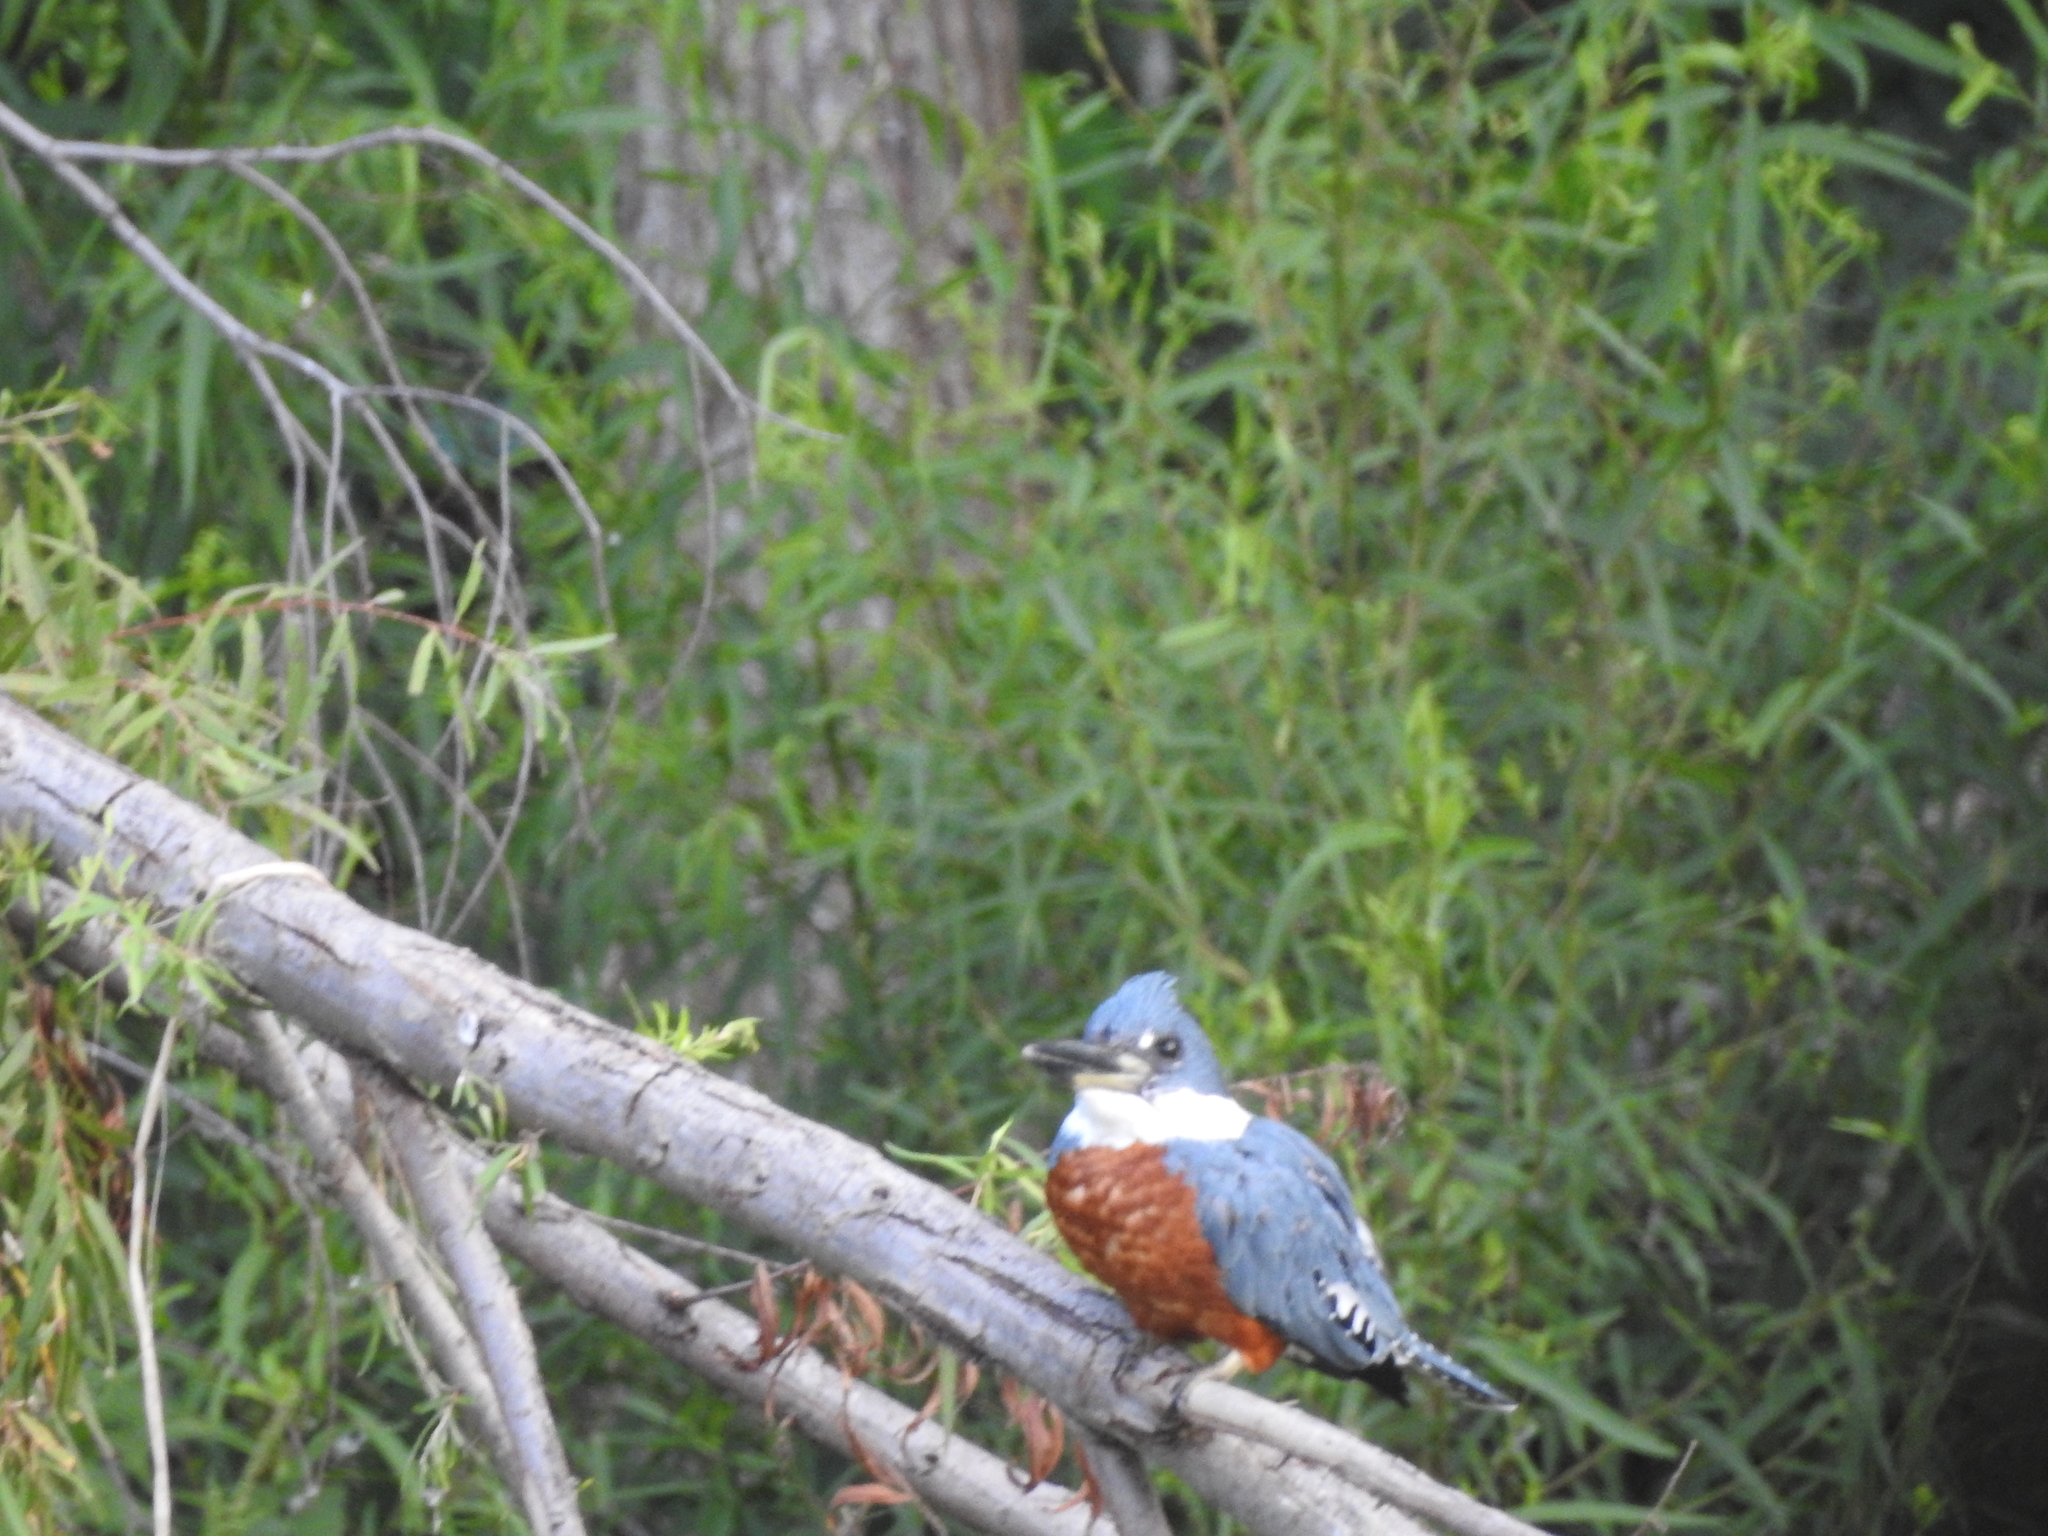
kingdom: Animalia
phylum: Chordata
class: Aves
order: Coraciiformes
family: Alcedinidae
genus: Megaceryle
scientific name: Megaceryle torquata
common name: Ringed kingfisher
